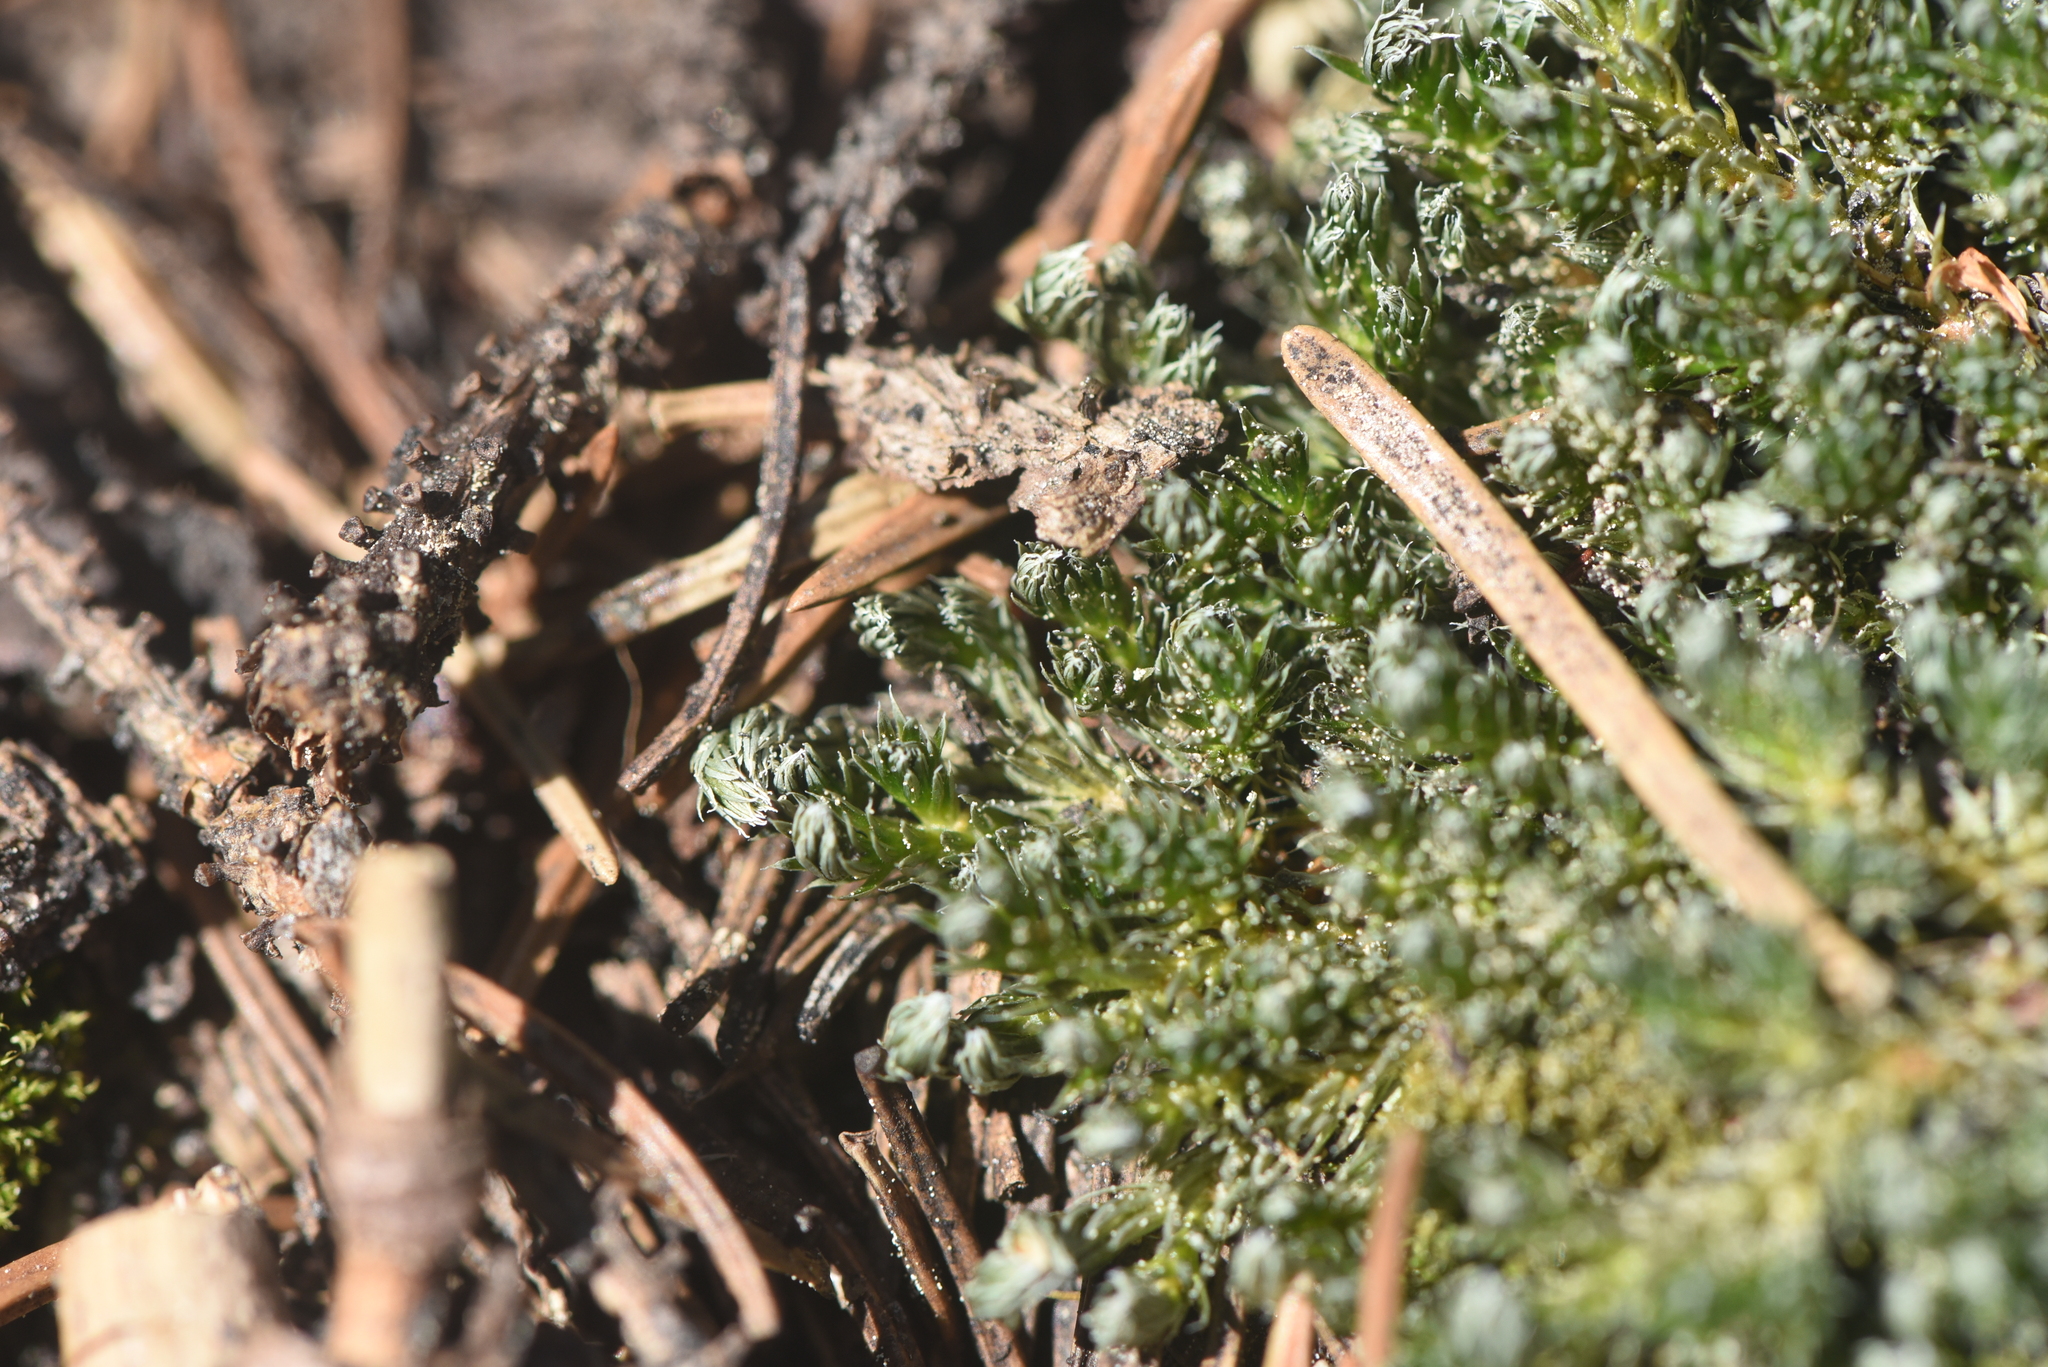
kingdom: Plantae
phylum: Tracheophyta
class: Lycopodiopsida
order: Selaginellales
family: Selaginellaceae
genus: Selaginella
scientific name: Selaginella densa
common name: Mountain spike-moss
